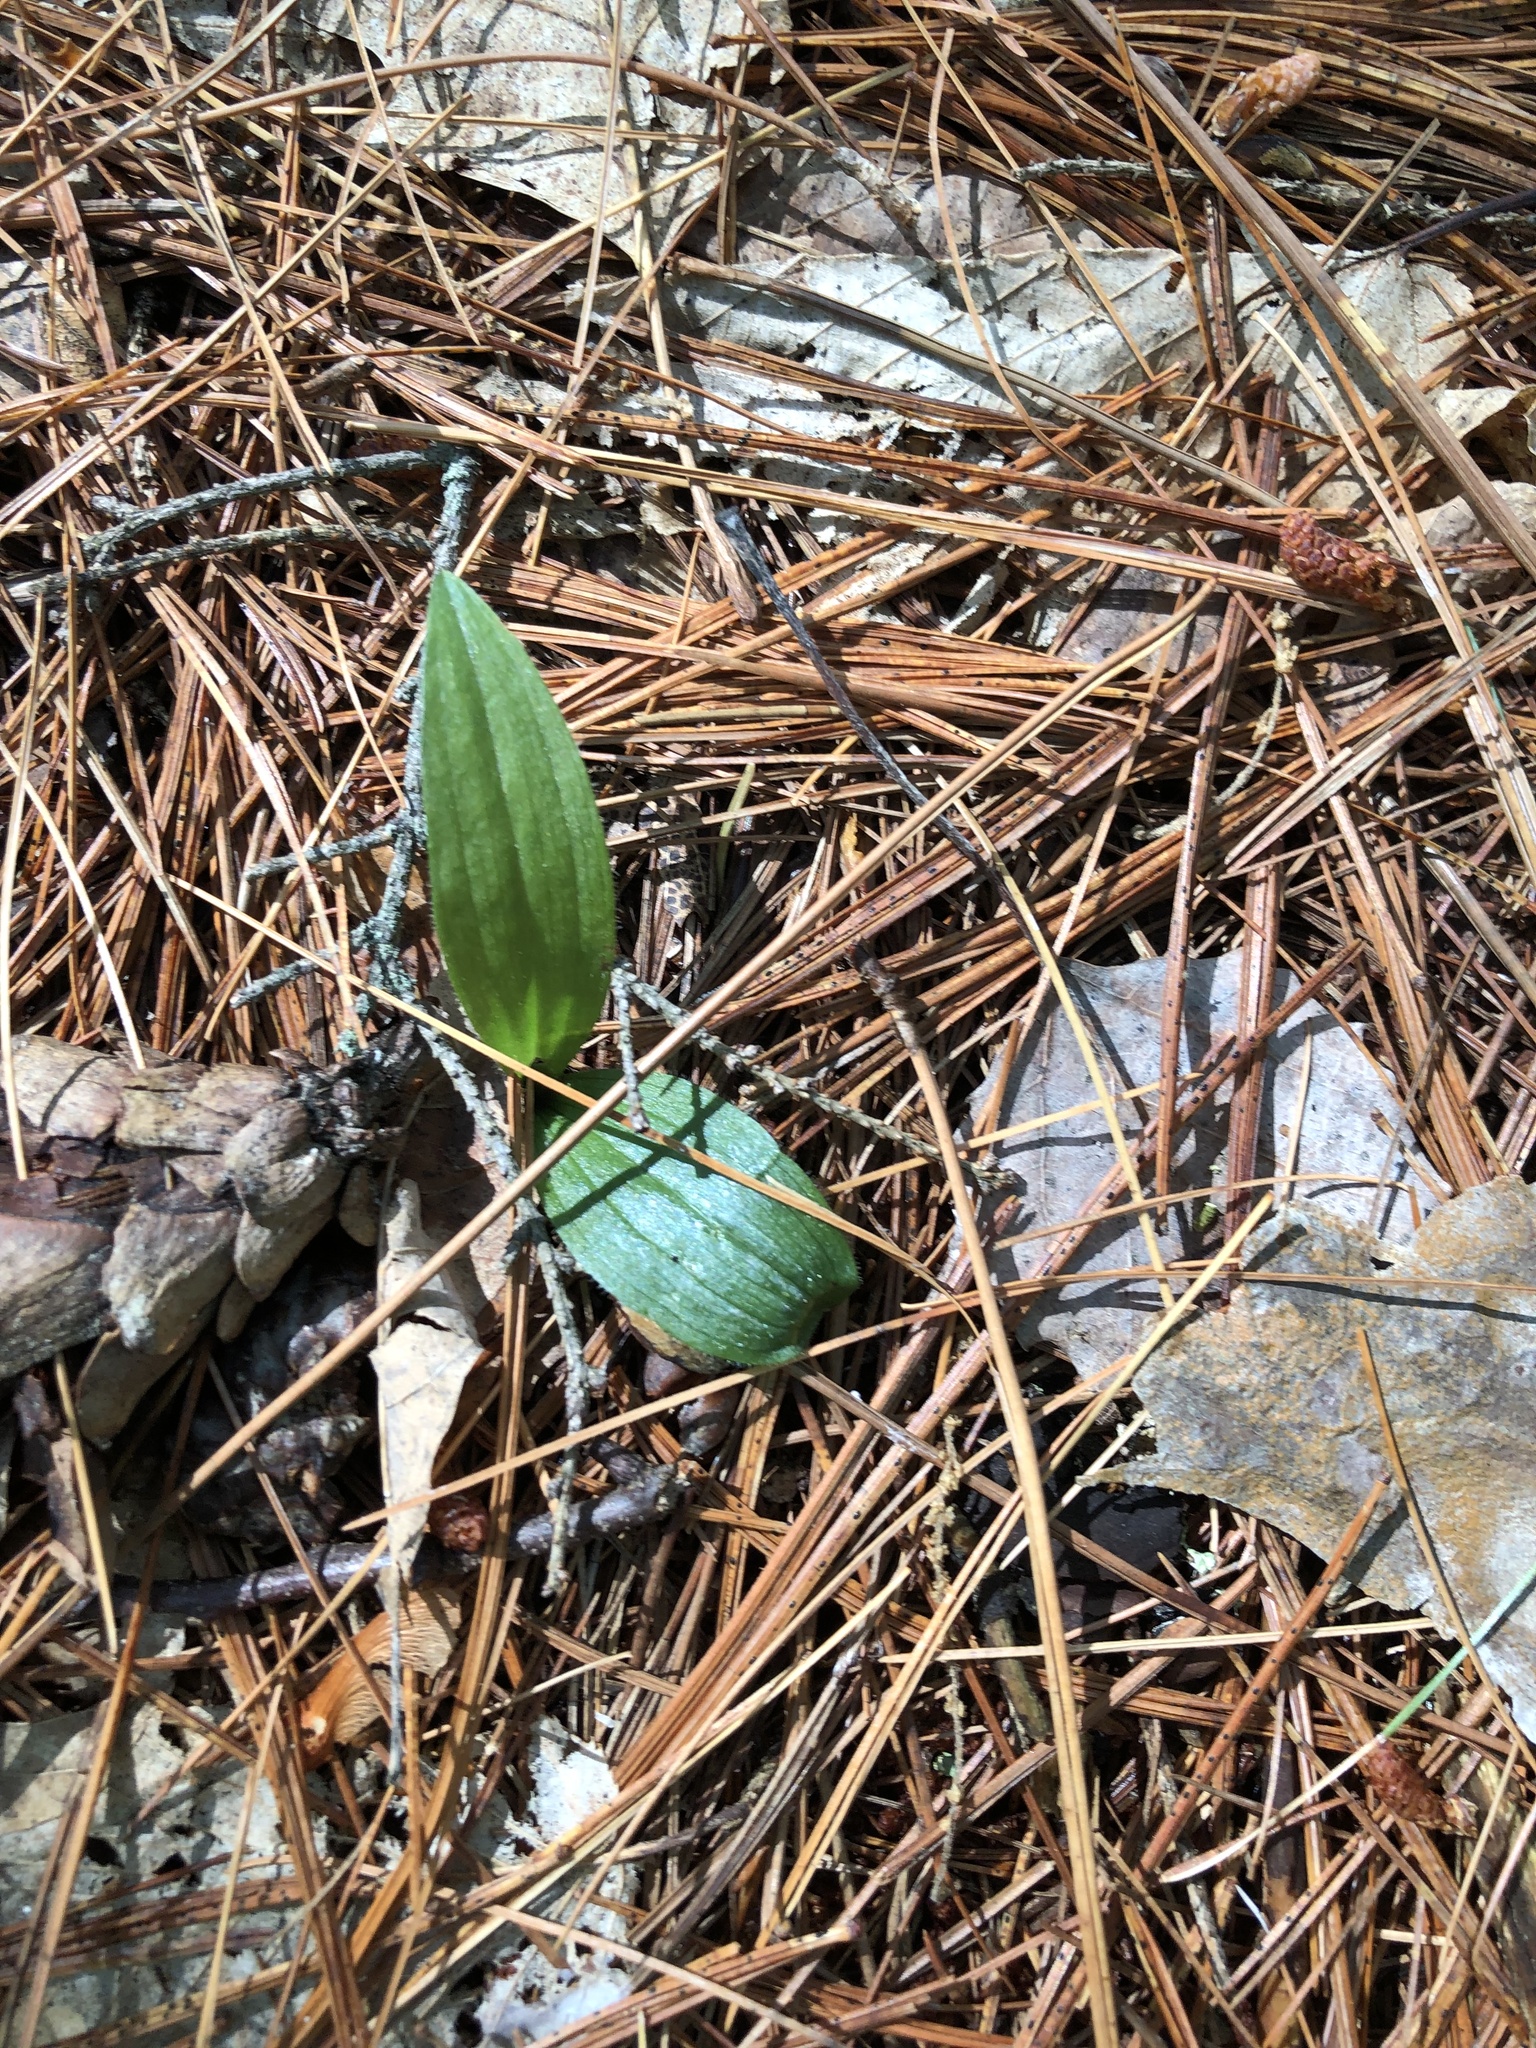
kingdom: Plantae
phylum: Tracheophyta
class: Liliopsida
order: Asparagales
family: Orchidaceae
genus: Cypripedium
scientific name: Cypripedium acaule
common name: Pink lady's-slipper
